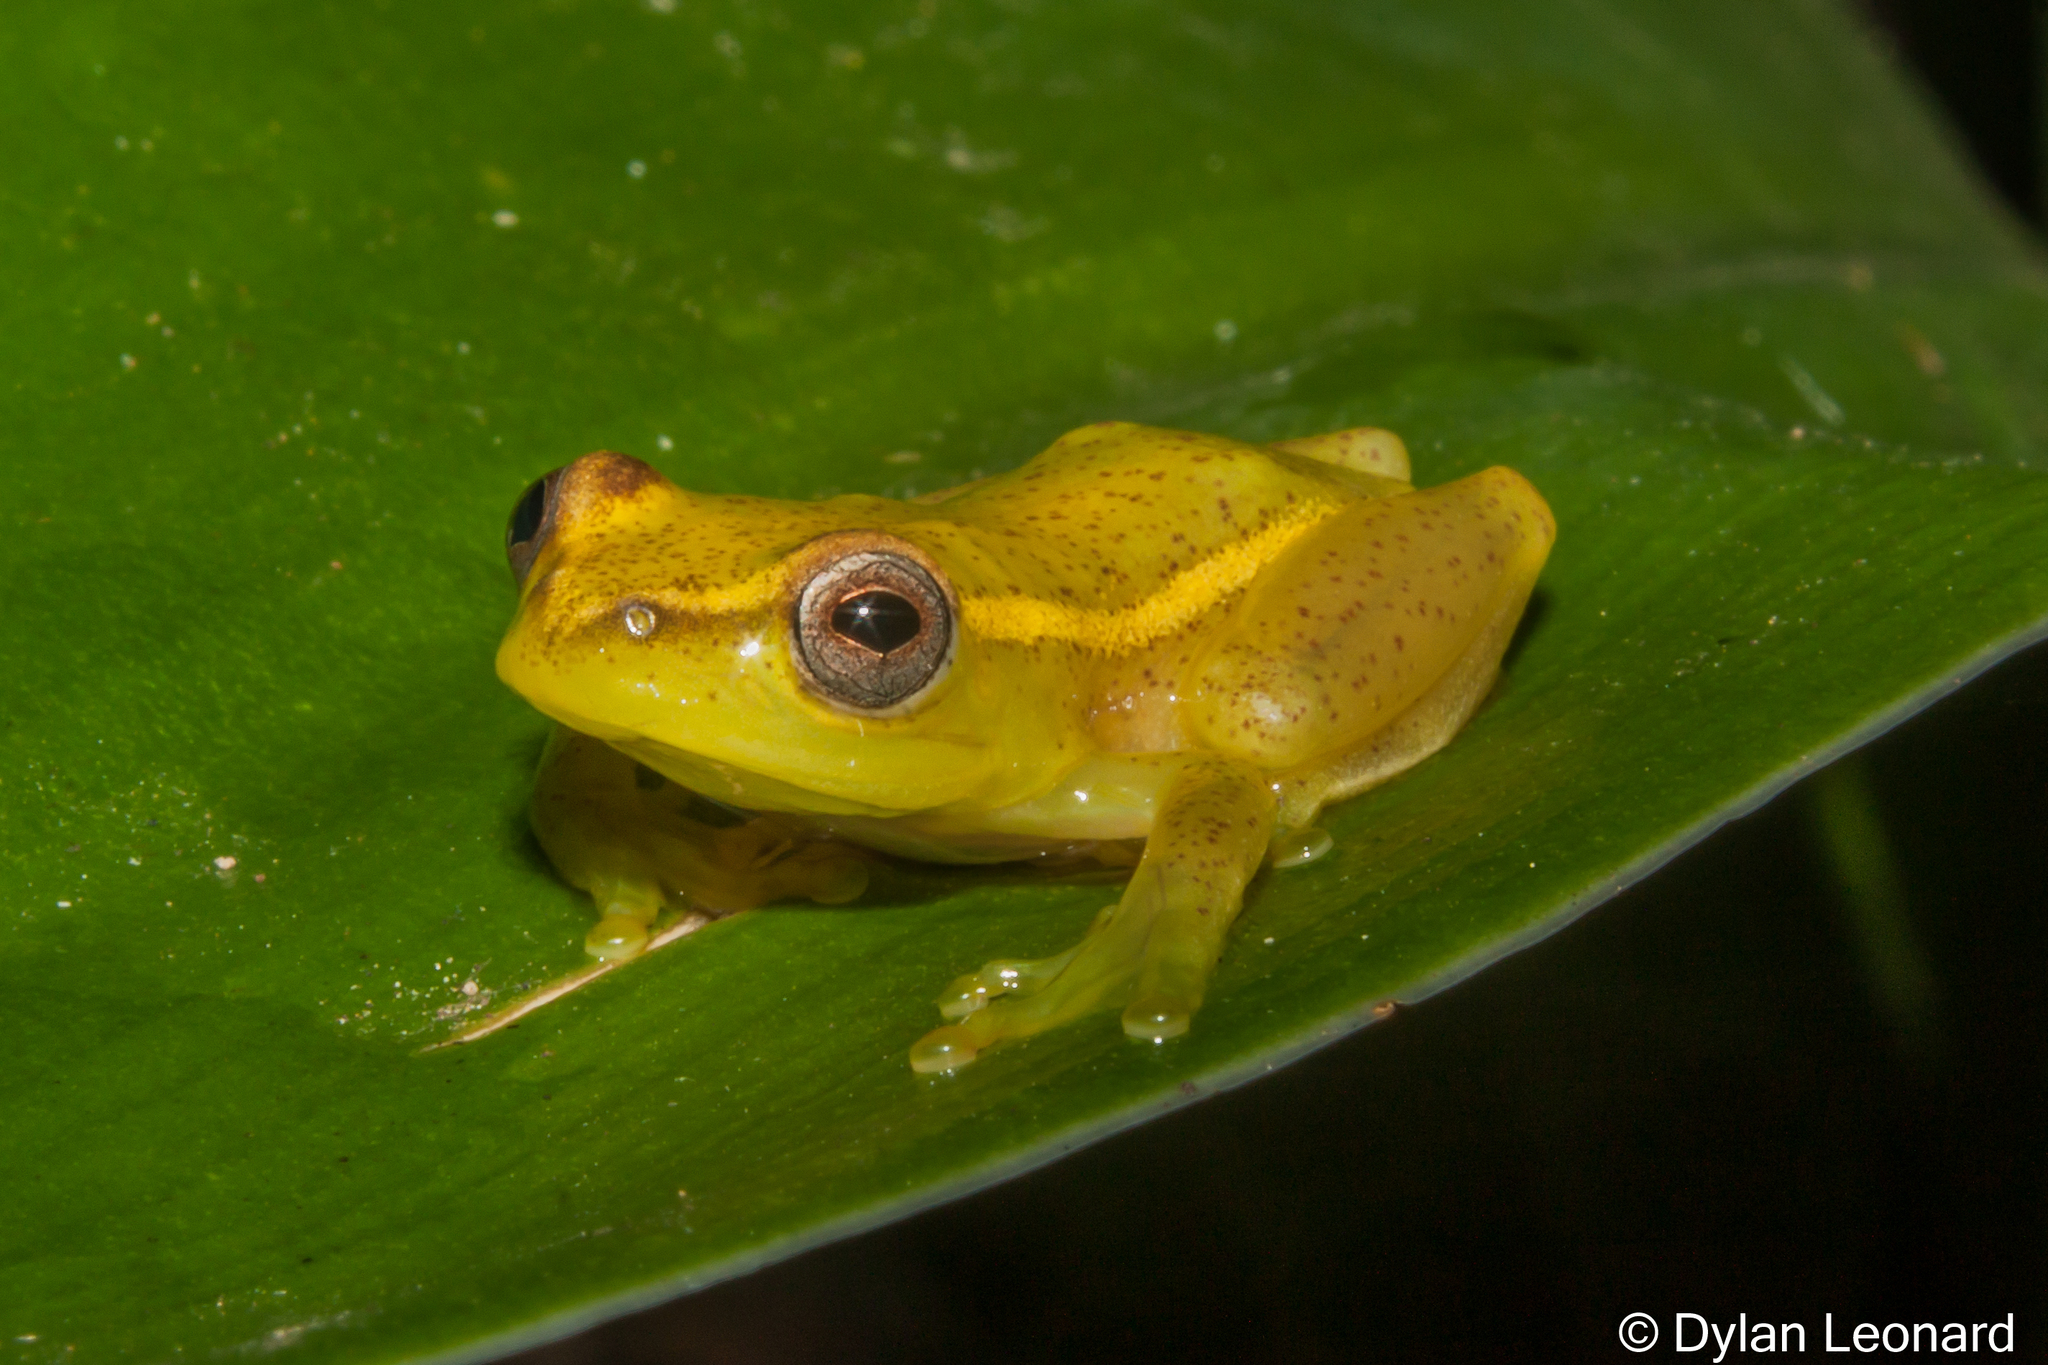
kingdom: Animalia
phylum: Chordata
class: Amphibia
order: Anura
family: Hyperoliidae
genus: Hyperolius
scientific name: Hyperolius argus
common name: Argus reed frog
